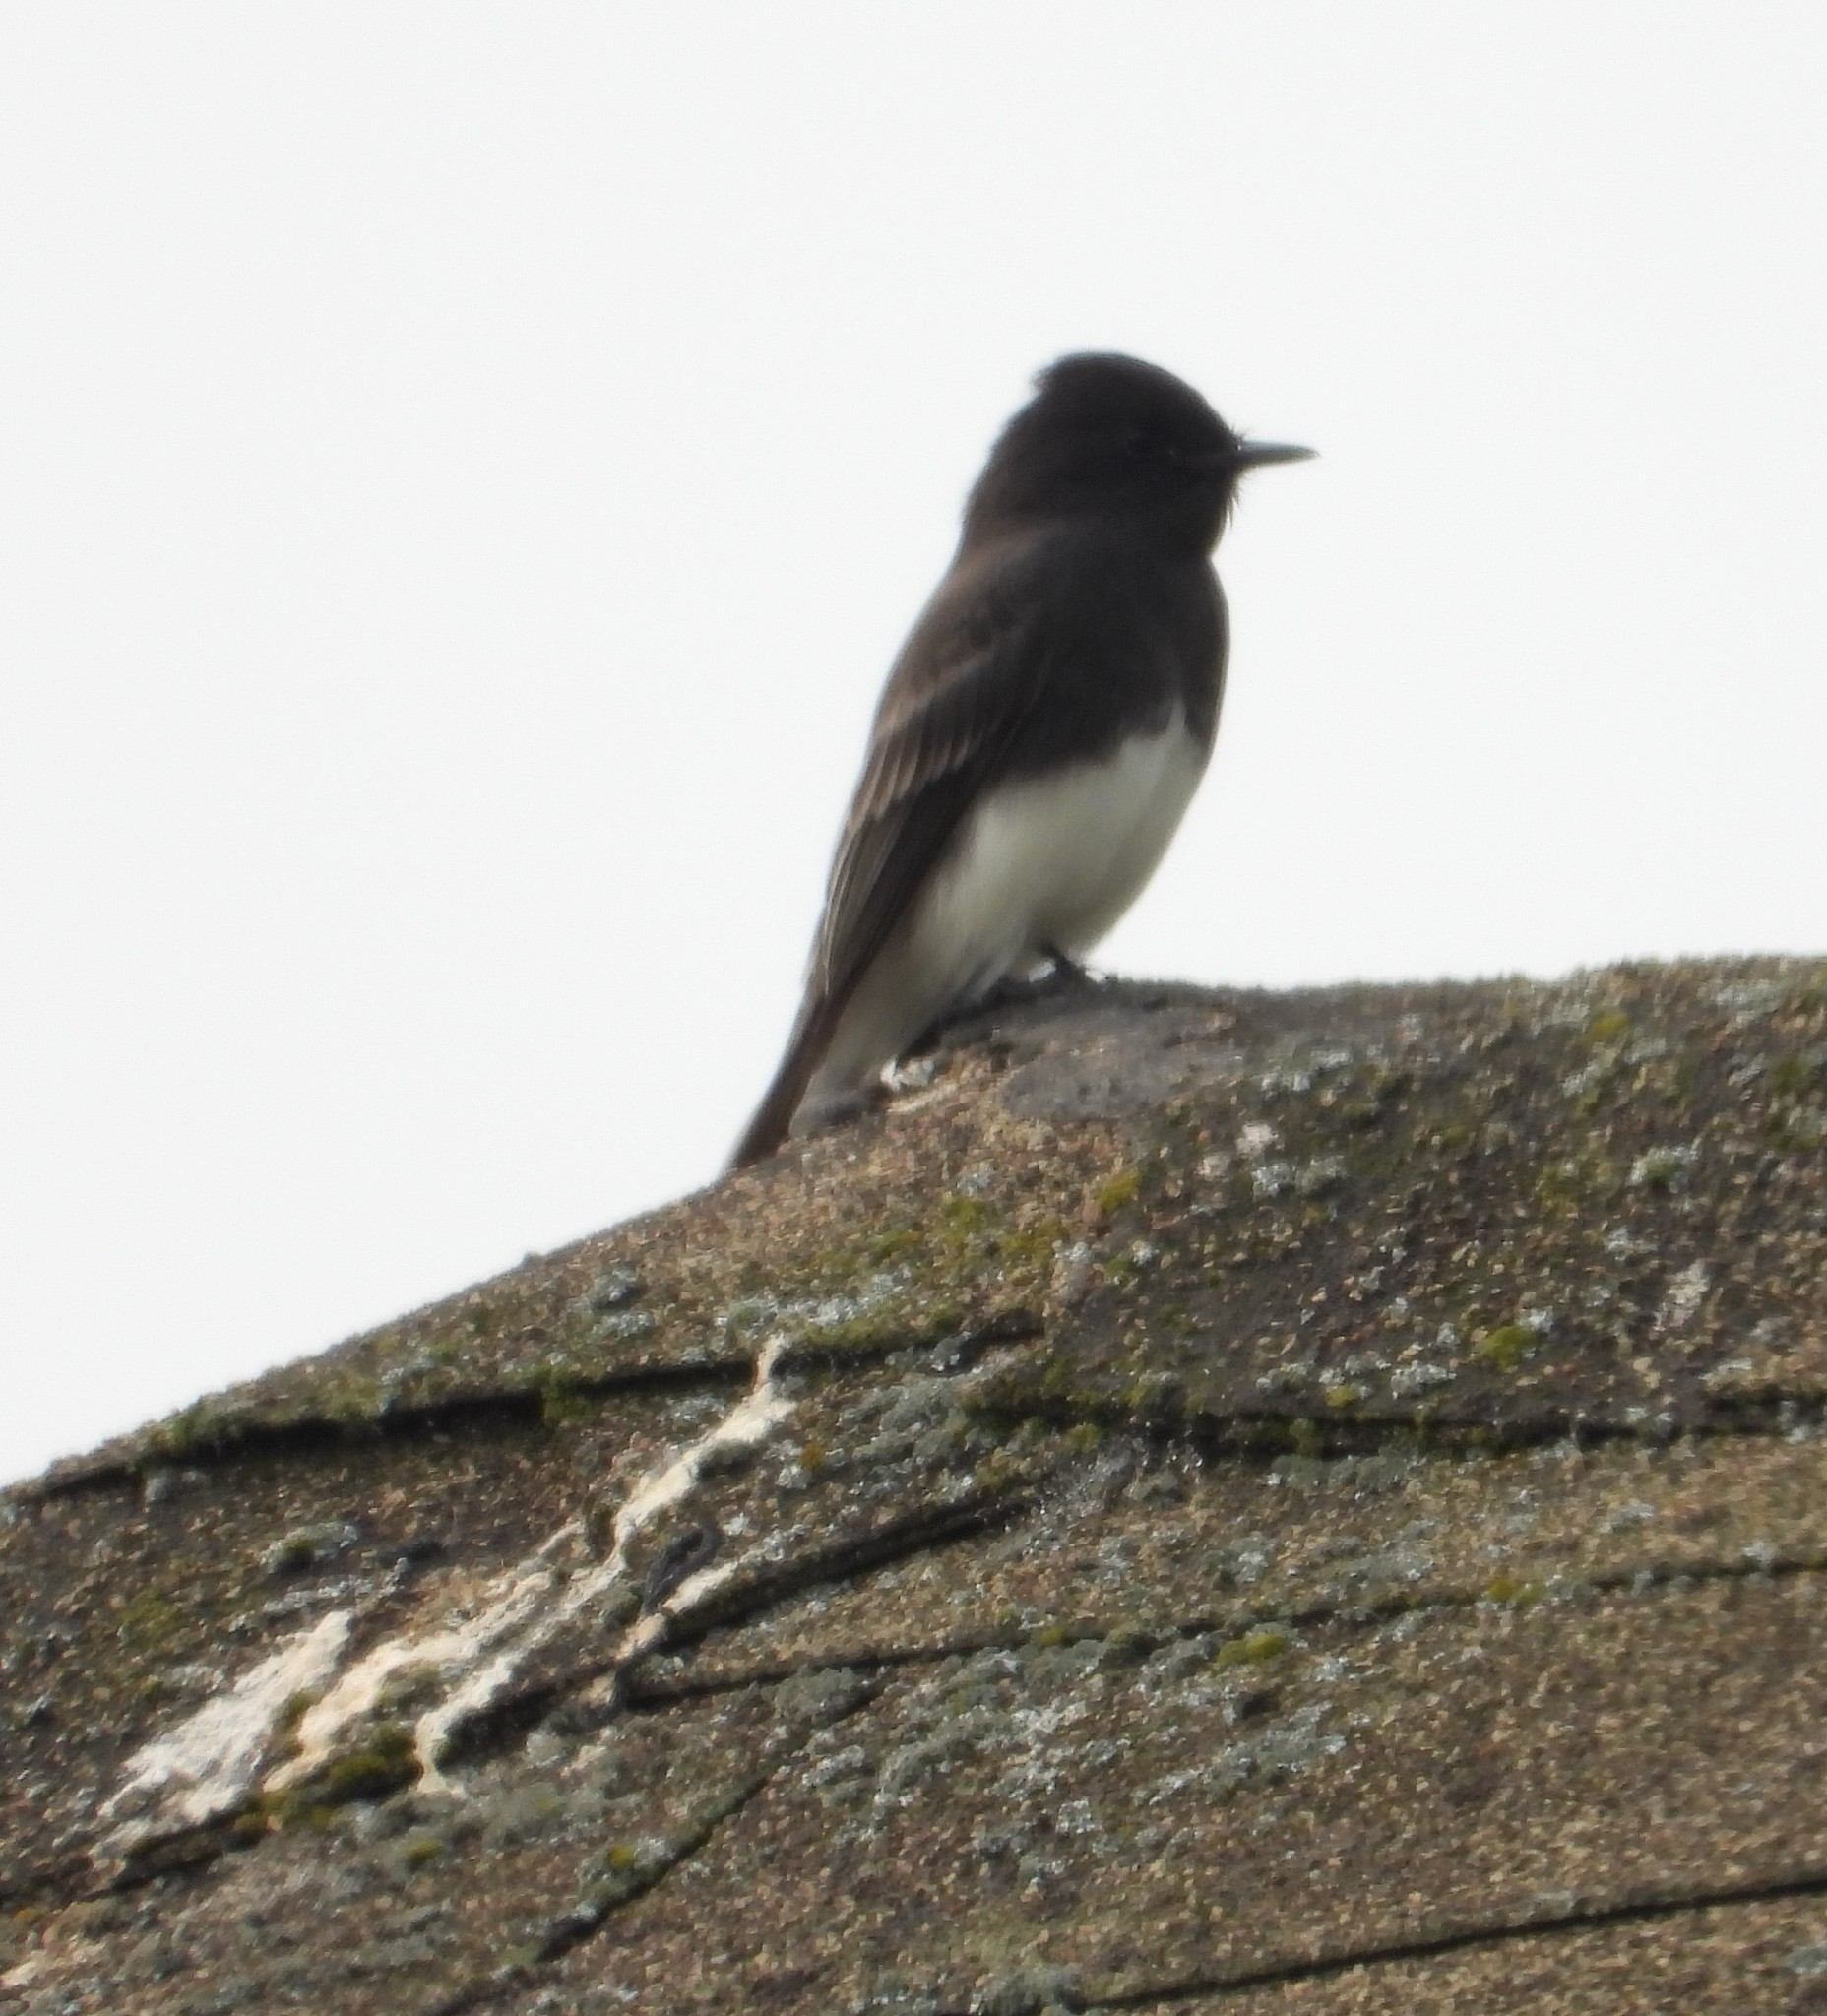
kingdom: Animalia
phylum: Chordata
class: Aves
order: Passeriformes
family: Tyrannidae
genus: Sayornis
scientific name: Sayornis nigricans
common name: Black phoebe
